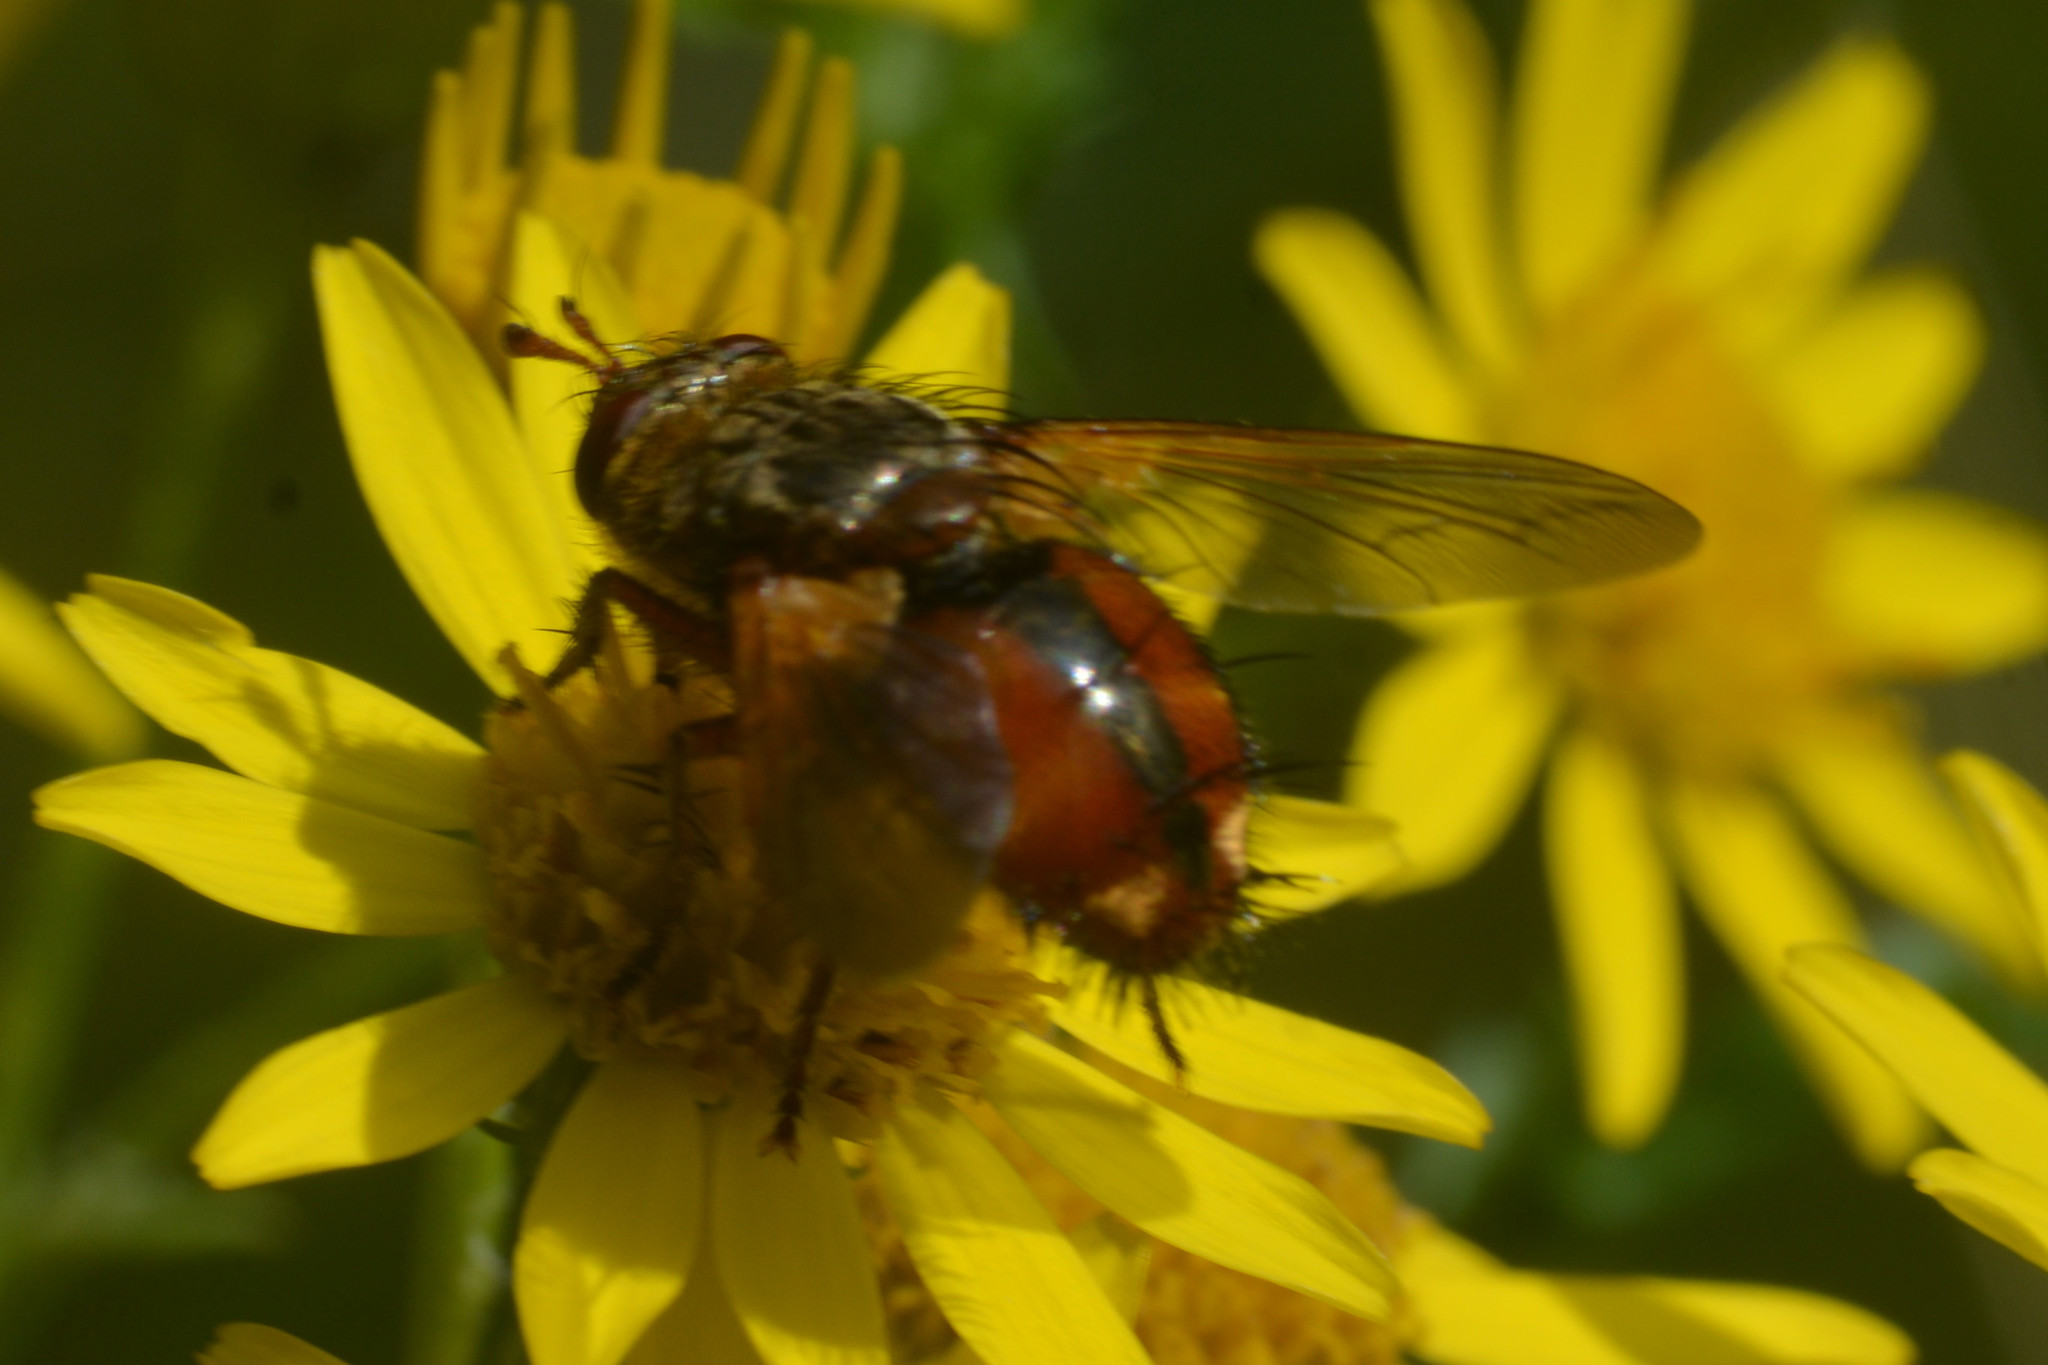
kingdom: Animalia
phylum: Arthropoda
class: Insecta
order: Diptera
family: Tachinidae
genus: Tachina
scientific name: Tachina fera
